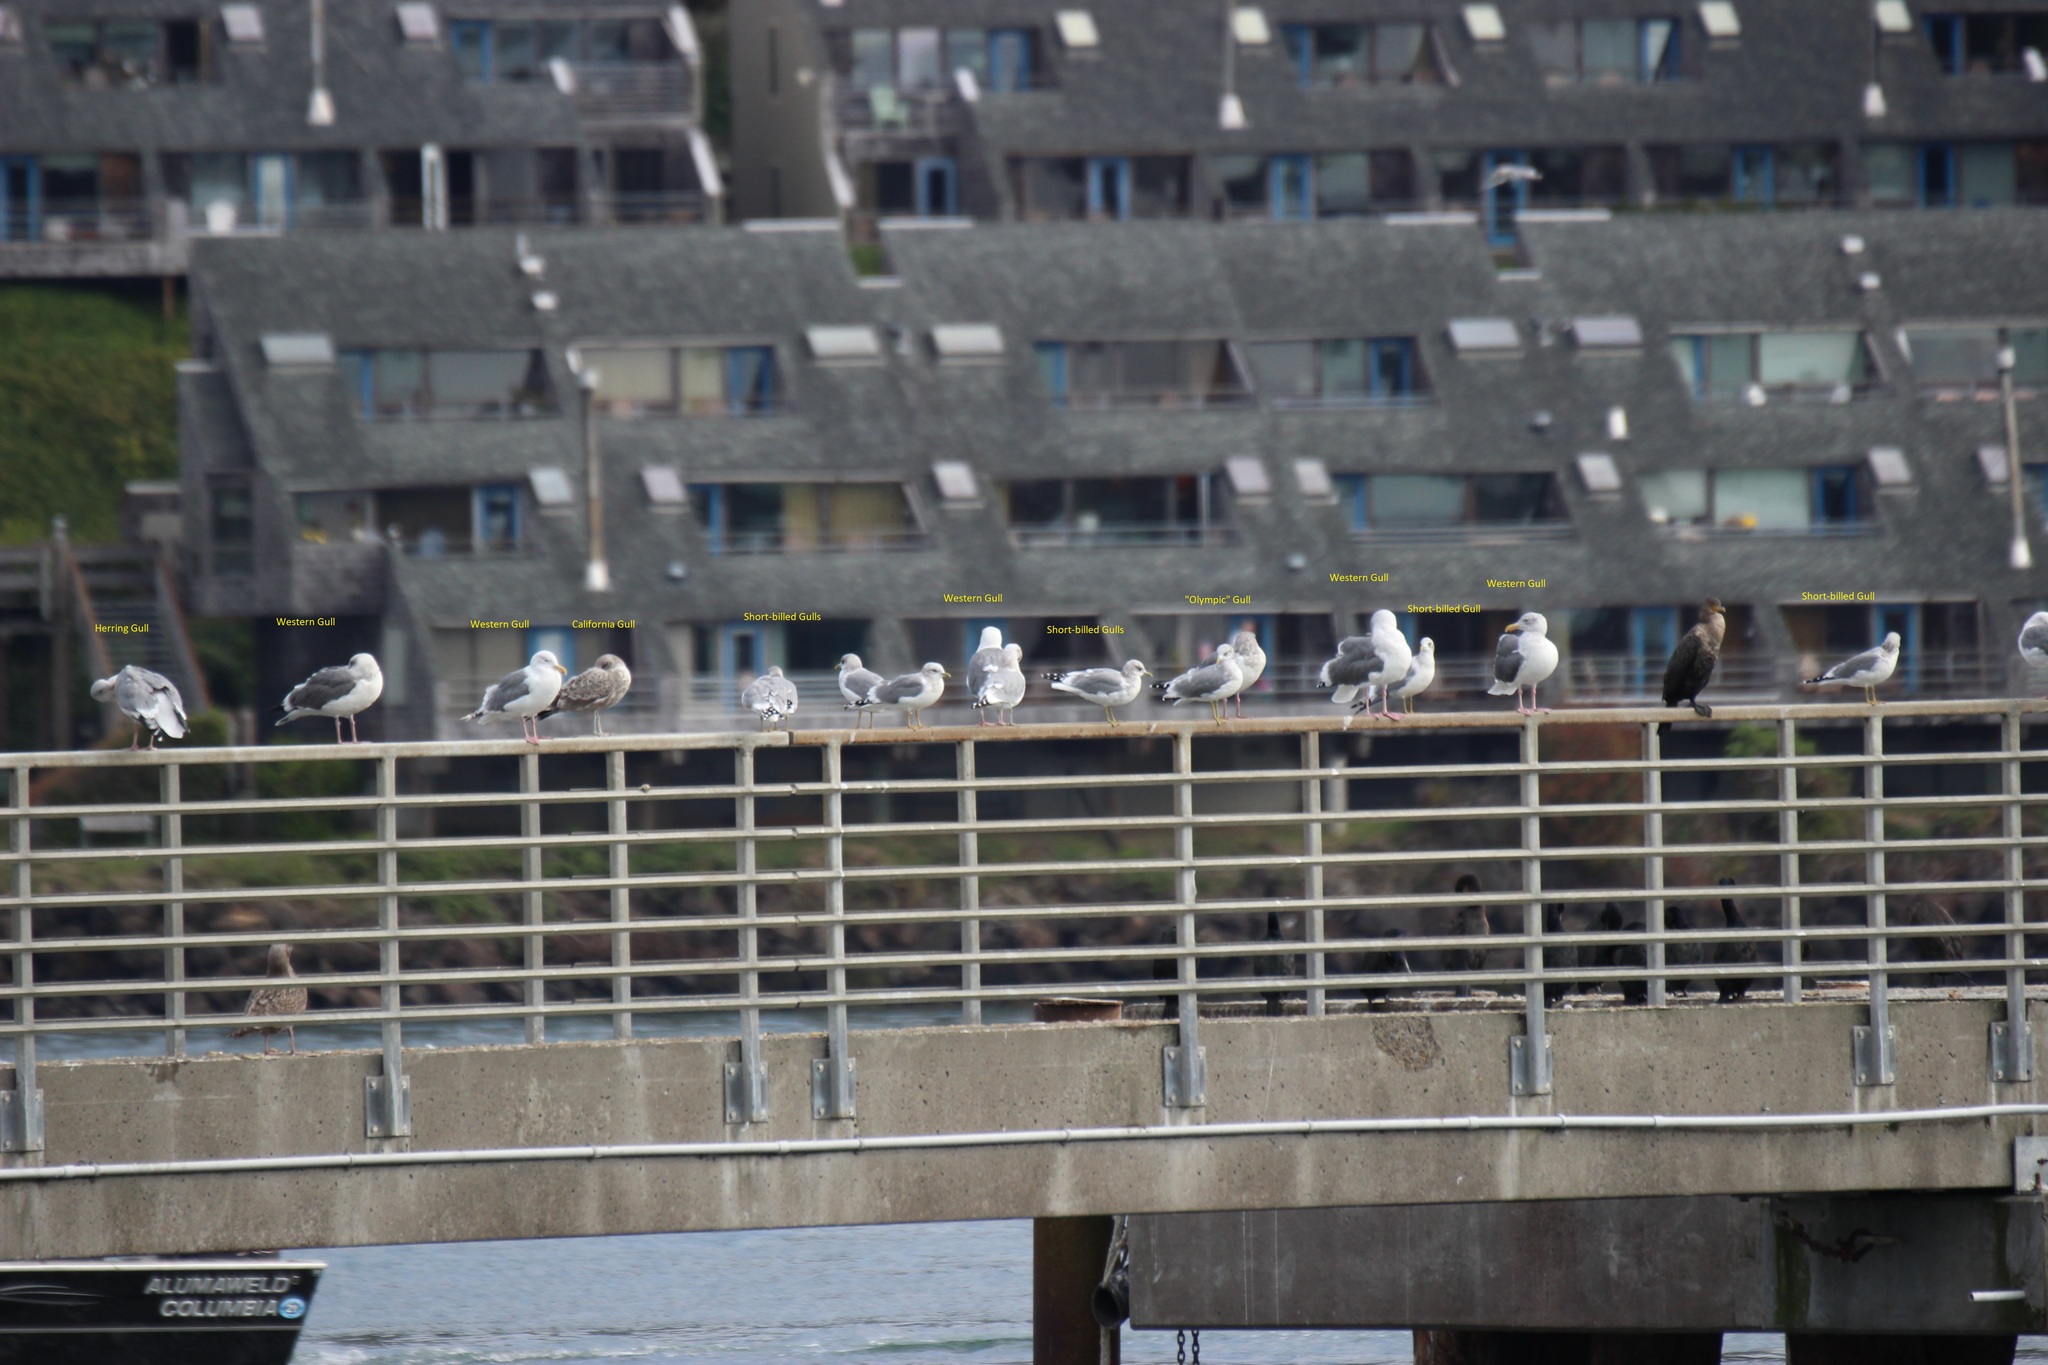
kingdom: Animalia
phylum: Chordata
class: Aves
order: Charadriiformes
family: Laridae
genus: Larus
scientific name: Larus occidentalis
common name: Western gull
